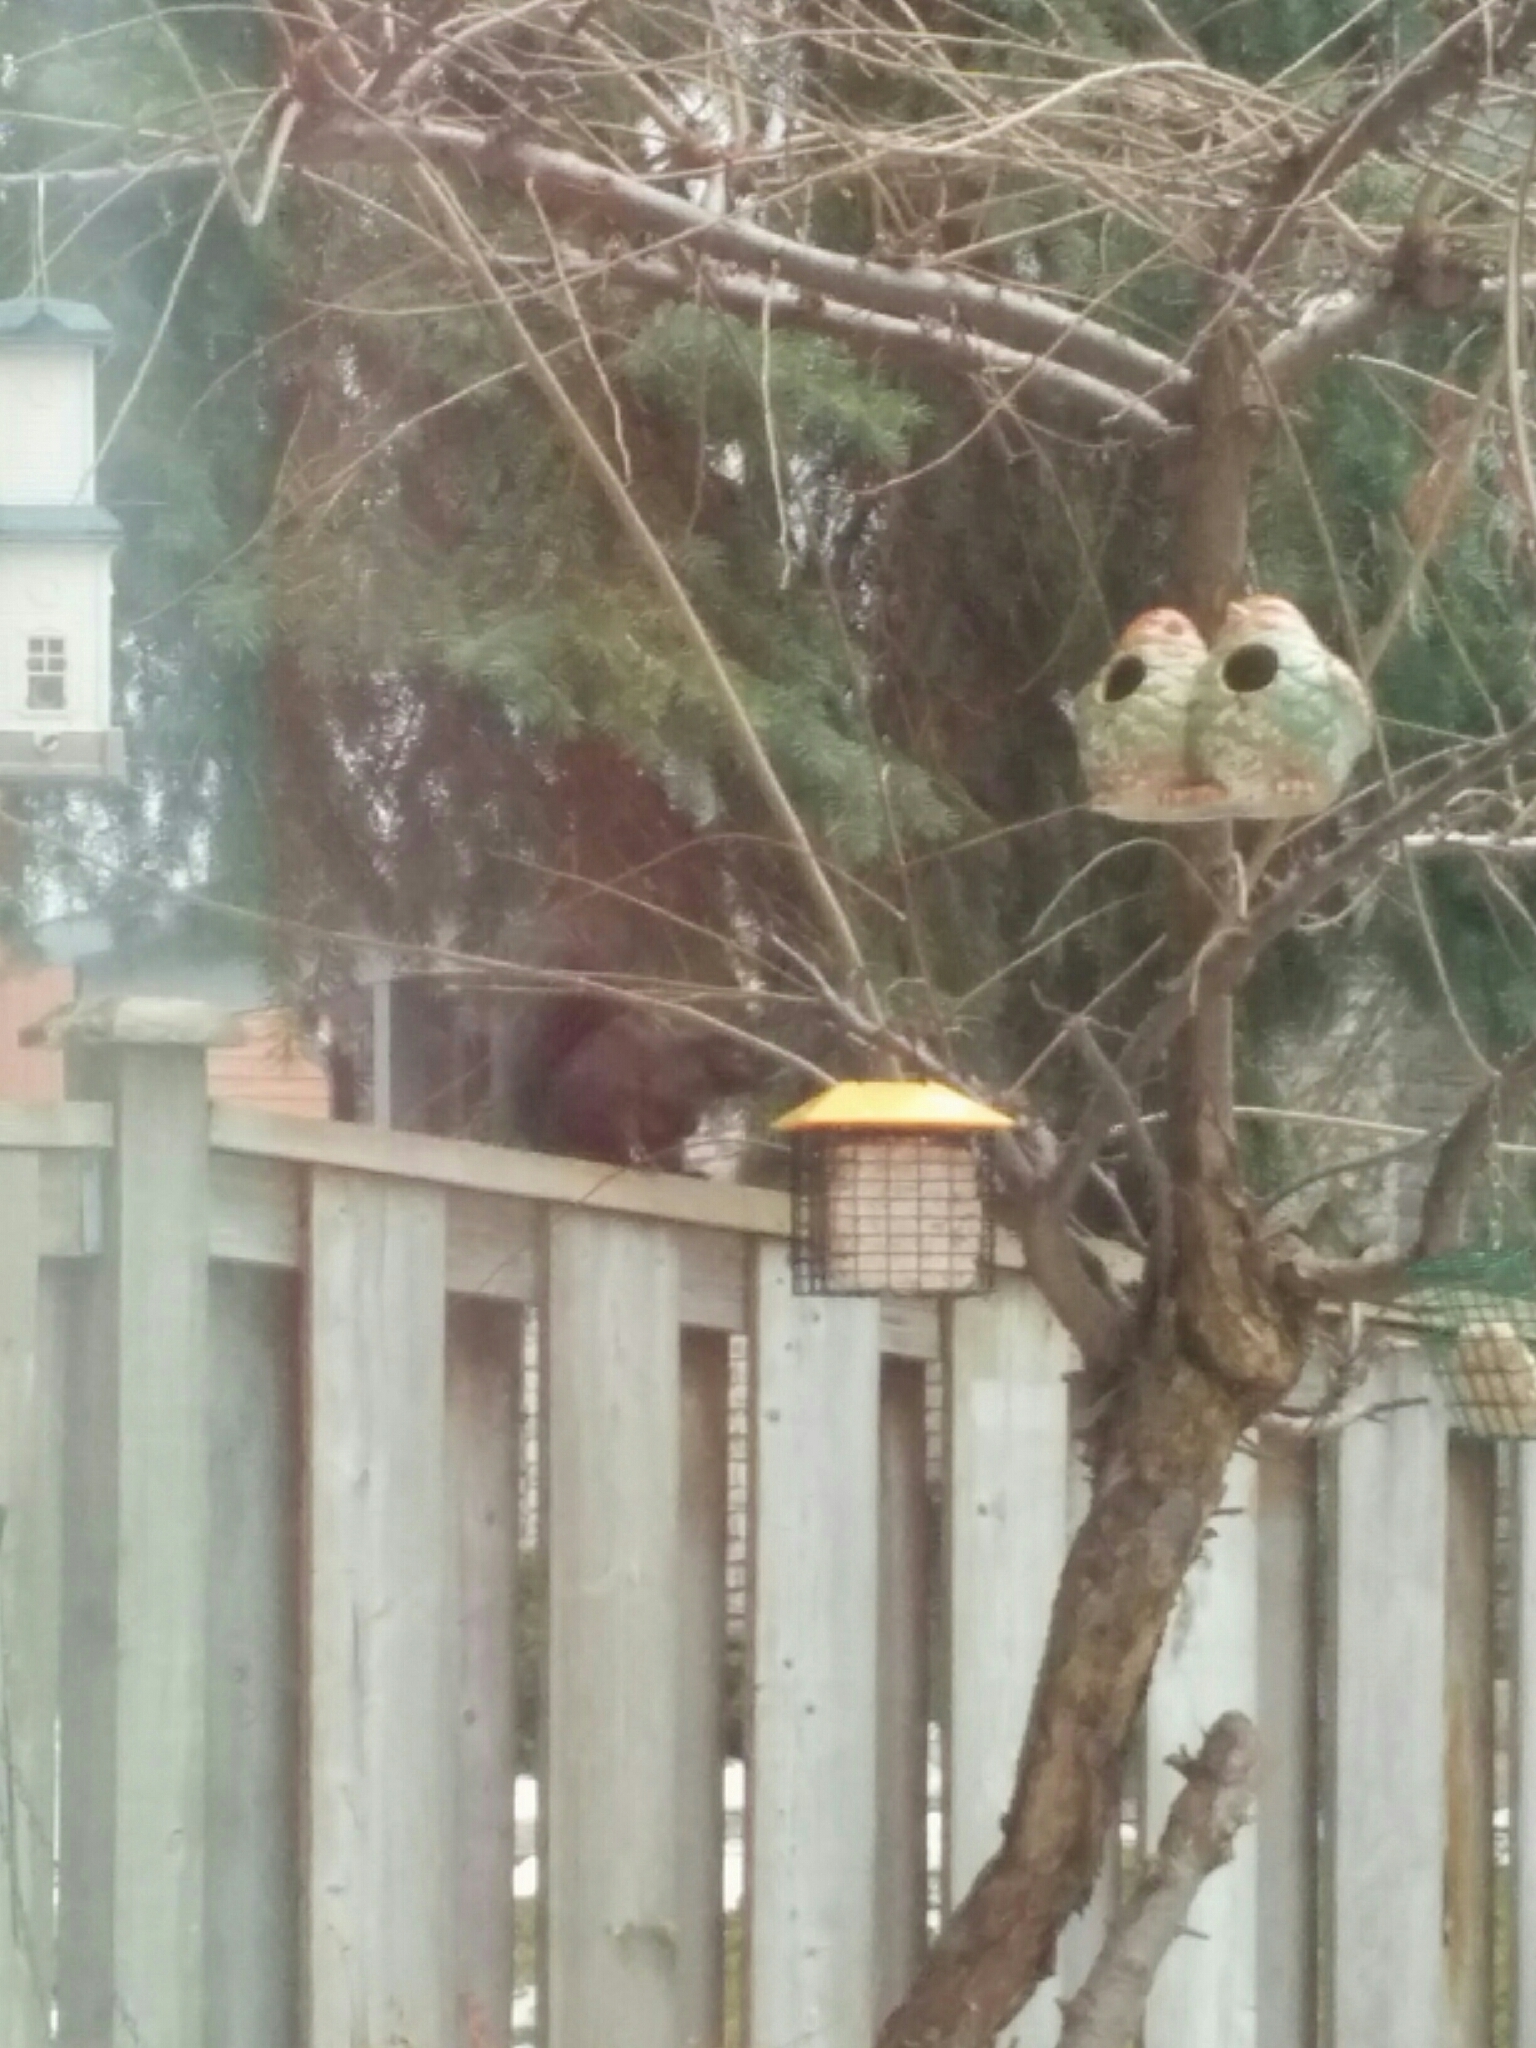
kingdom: Animalia
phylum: Chordata
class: Mammalia
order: Rodentia
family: Sciuridae
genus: Sciurus
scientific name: Sciurus carolinensis
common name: Eastern gray squirrel
